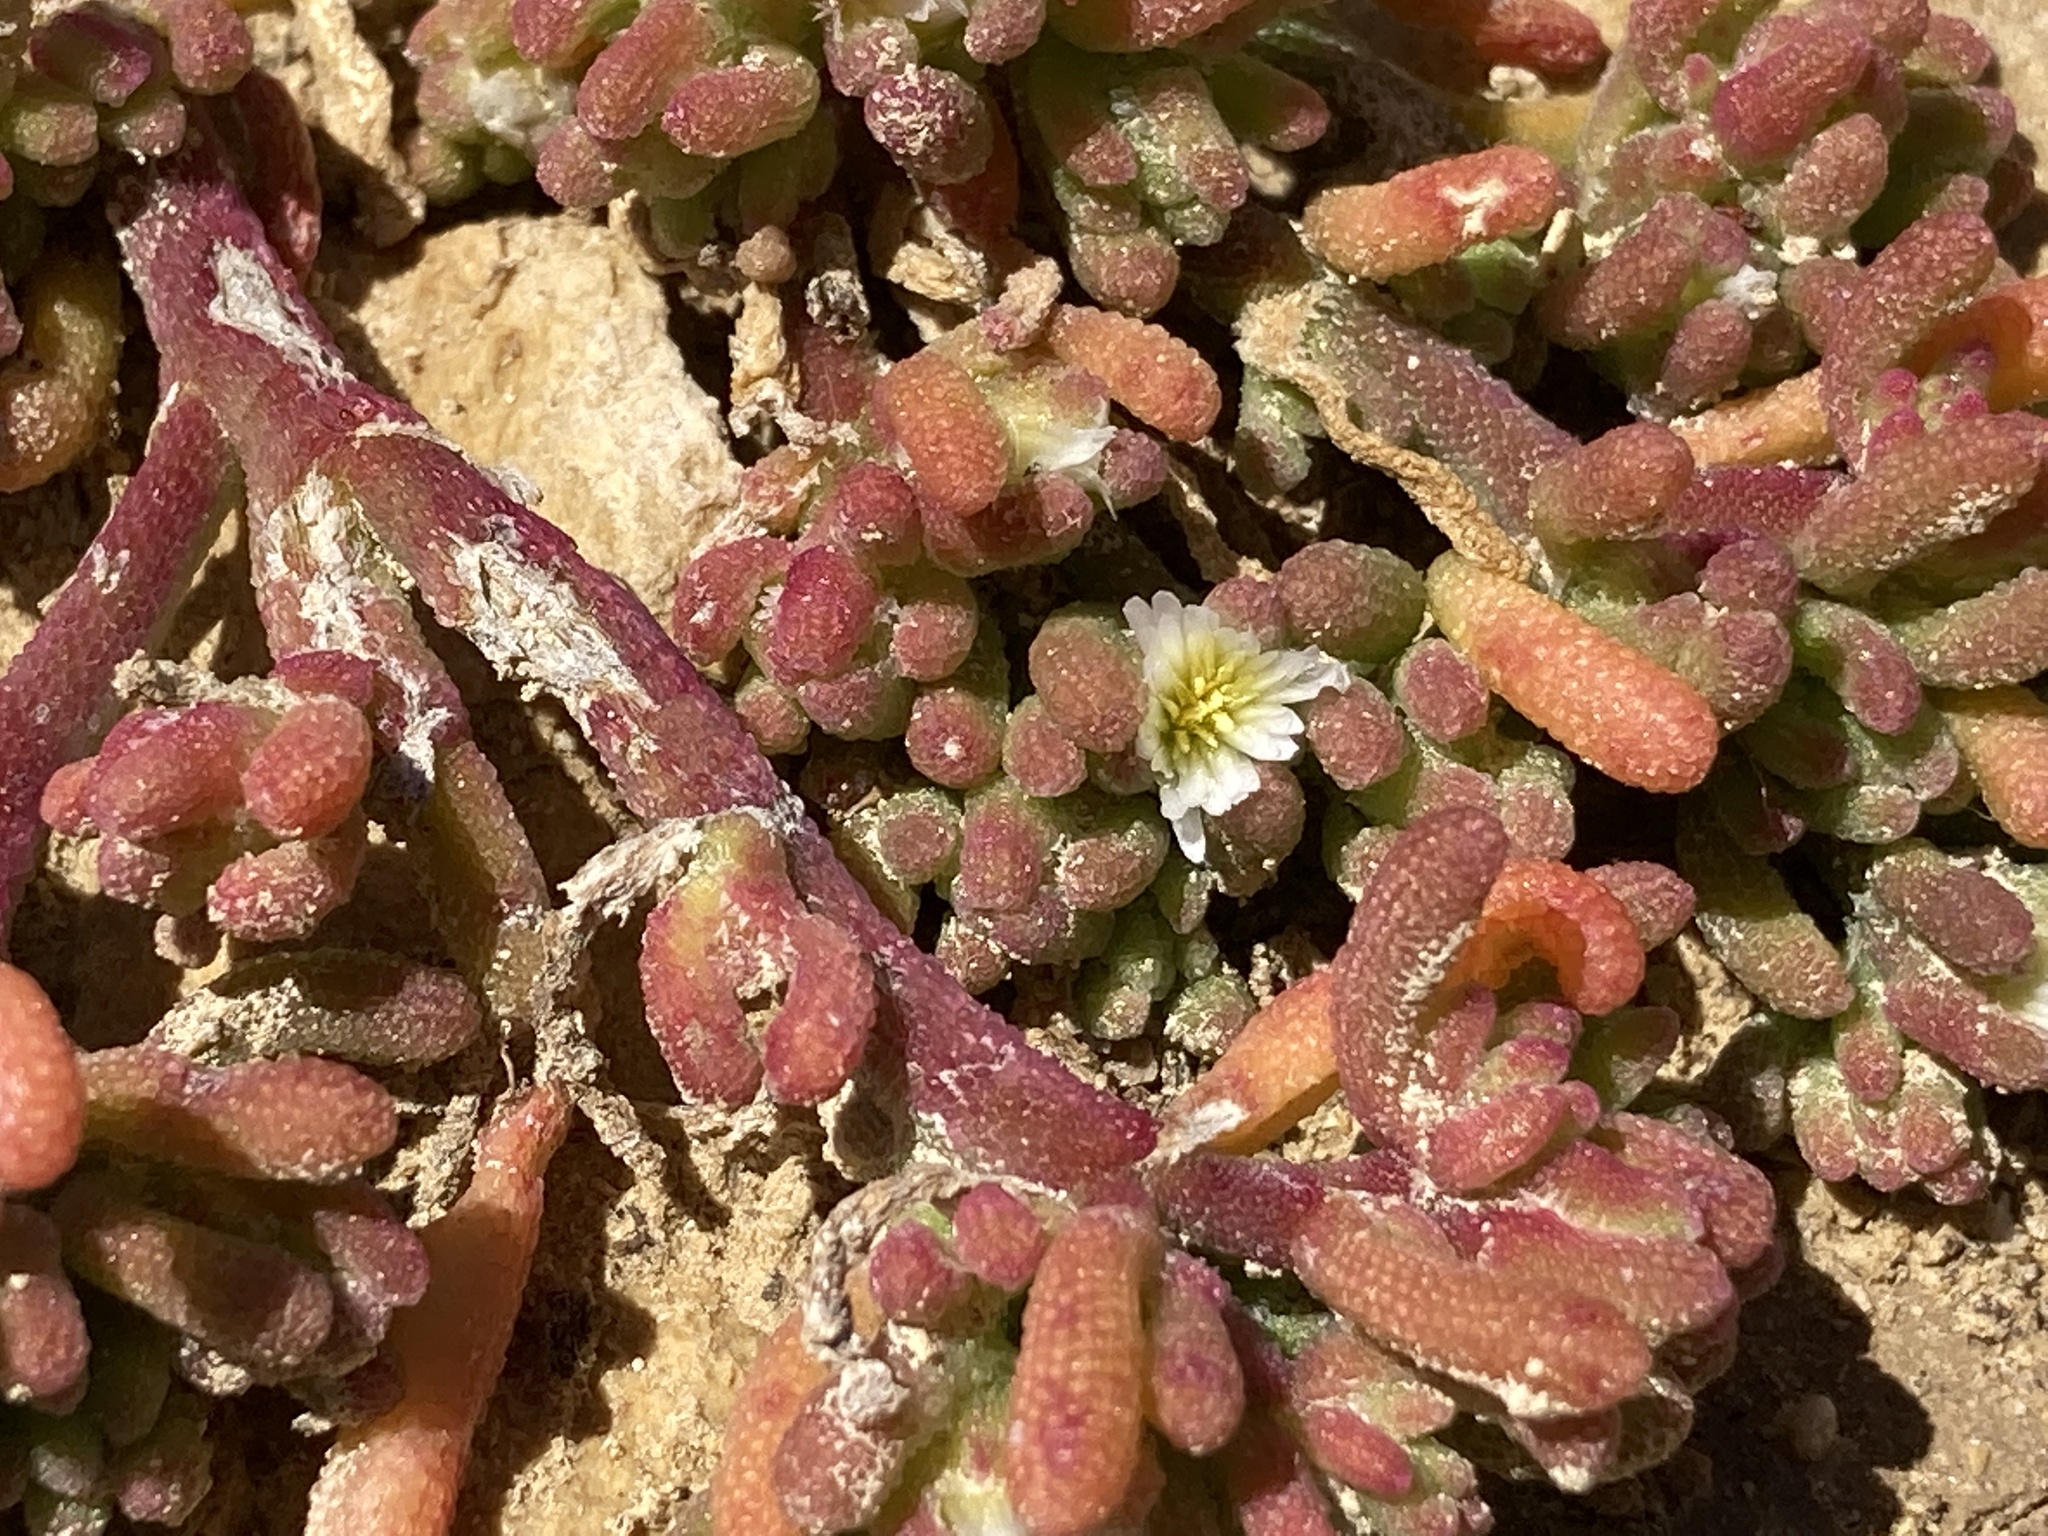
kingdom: Plantae
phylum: Tracheophyta
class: Magnoliopsida
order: Caryophyllales
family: Aizoaceae
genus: Mesembryanthemum
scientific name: Mesembryanthemum nodiflorum
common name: Slenderleaf iceplant
